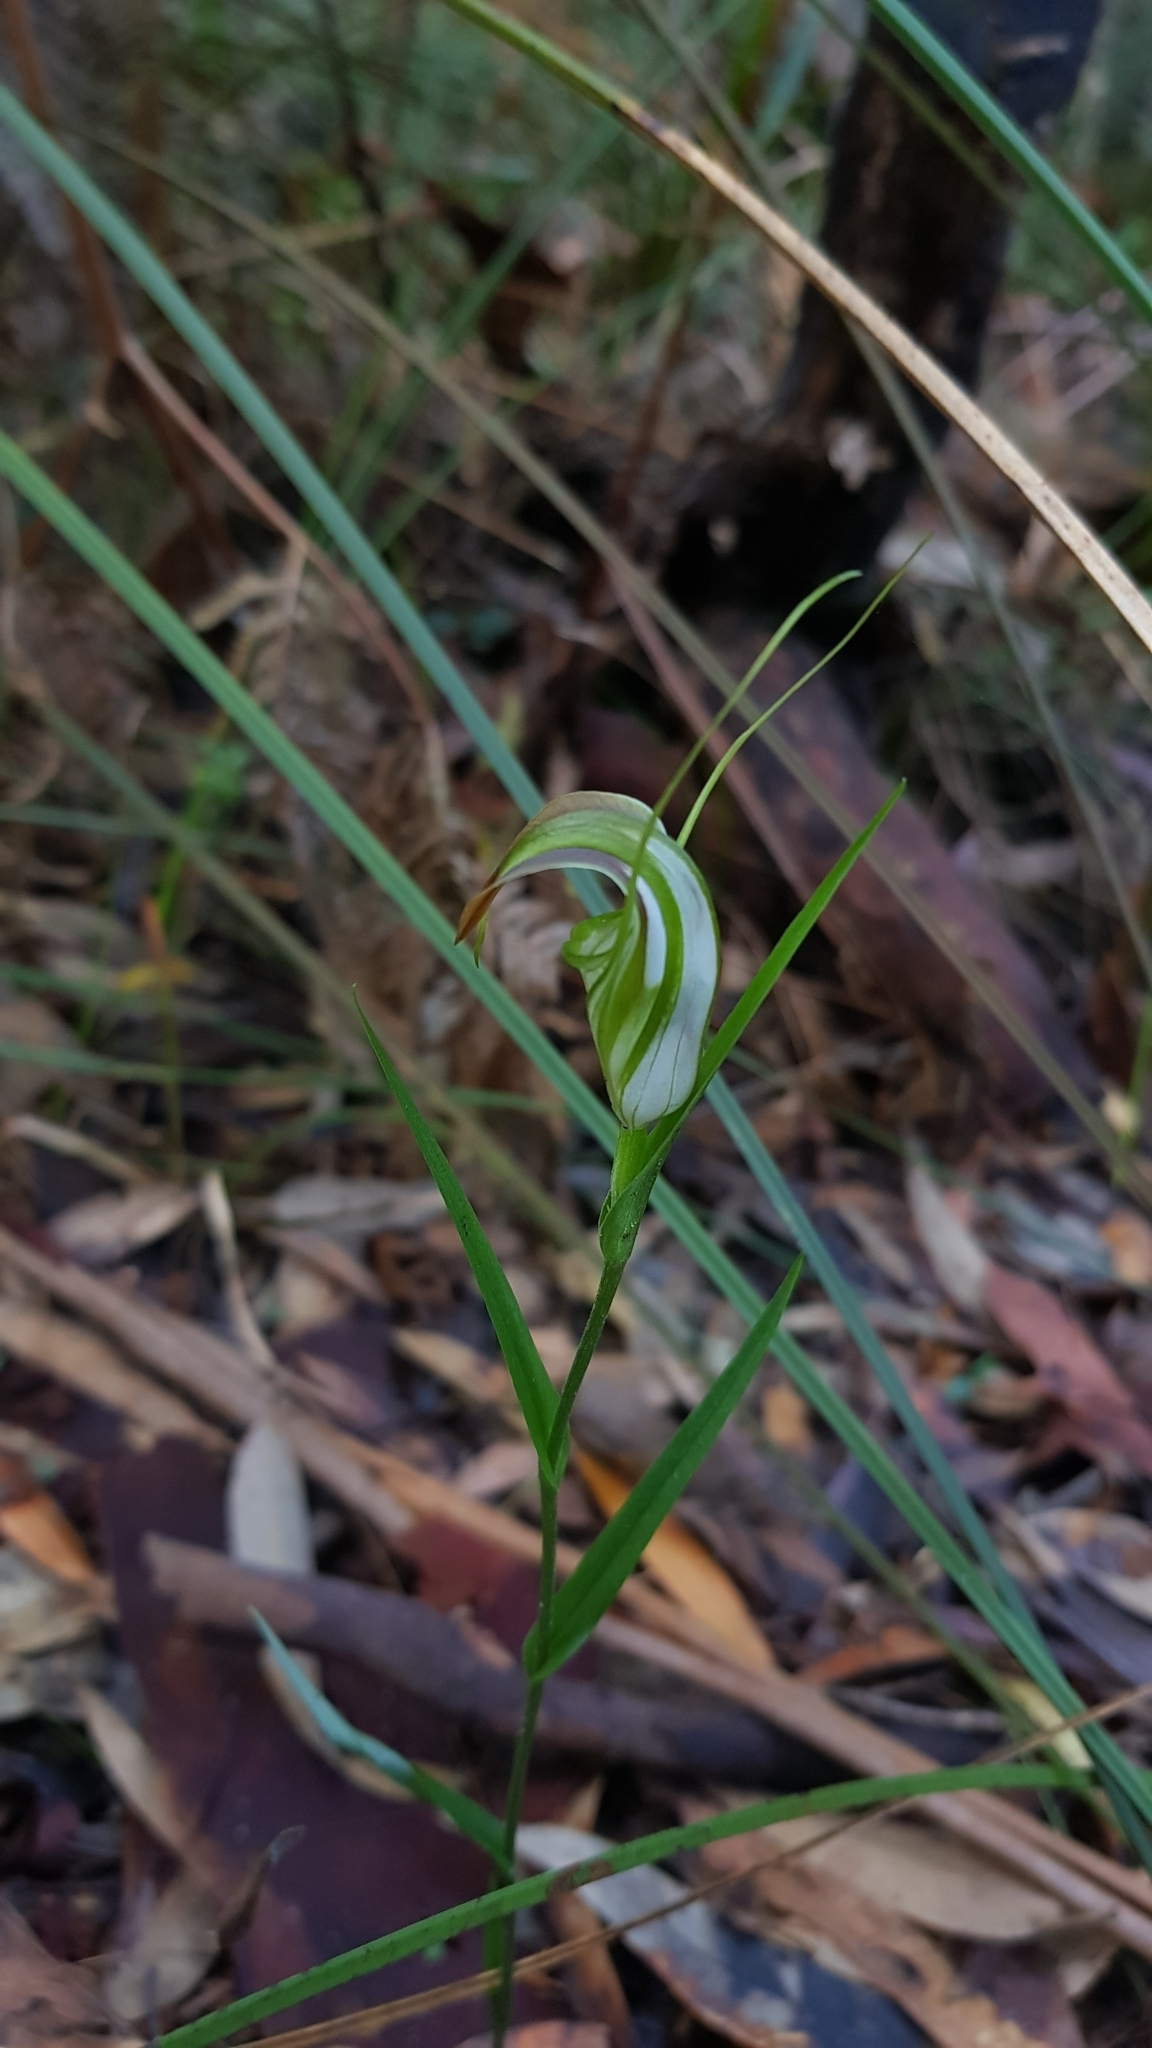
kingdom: Plantae
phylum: Tracheophyta
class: Liliopsida
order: Asparagales
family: Orchidaceae
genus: Pterostylis
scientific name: Pterostylis grandiflora
